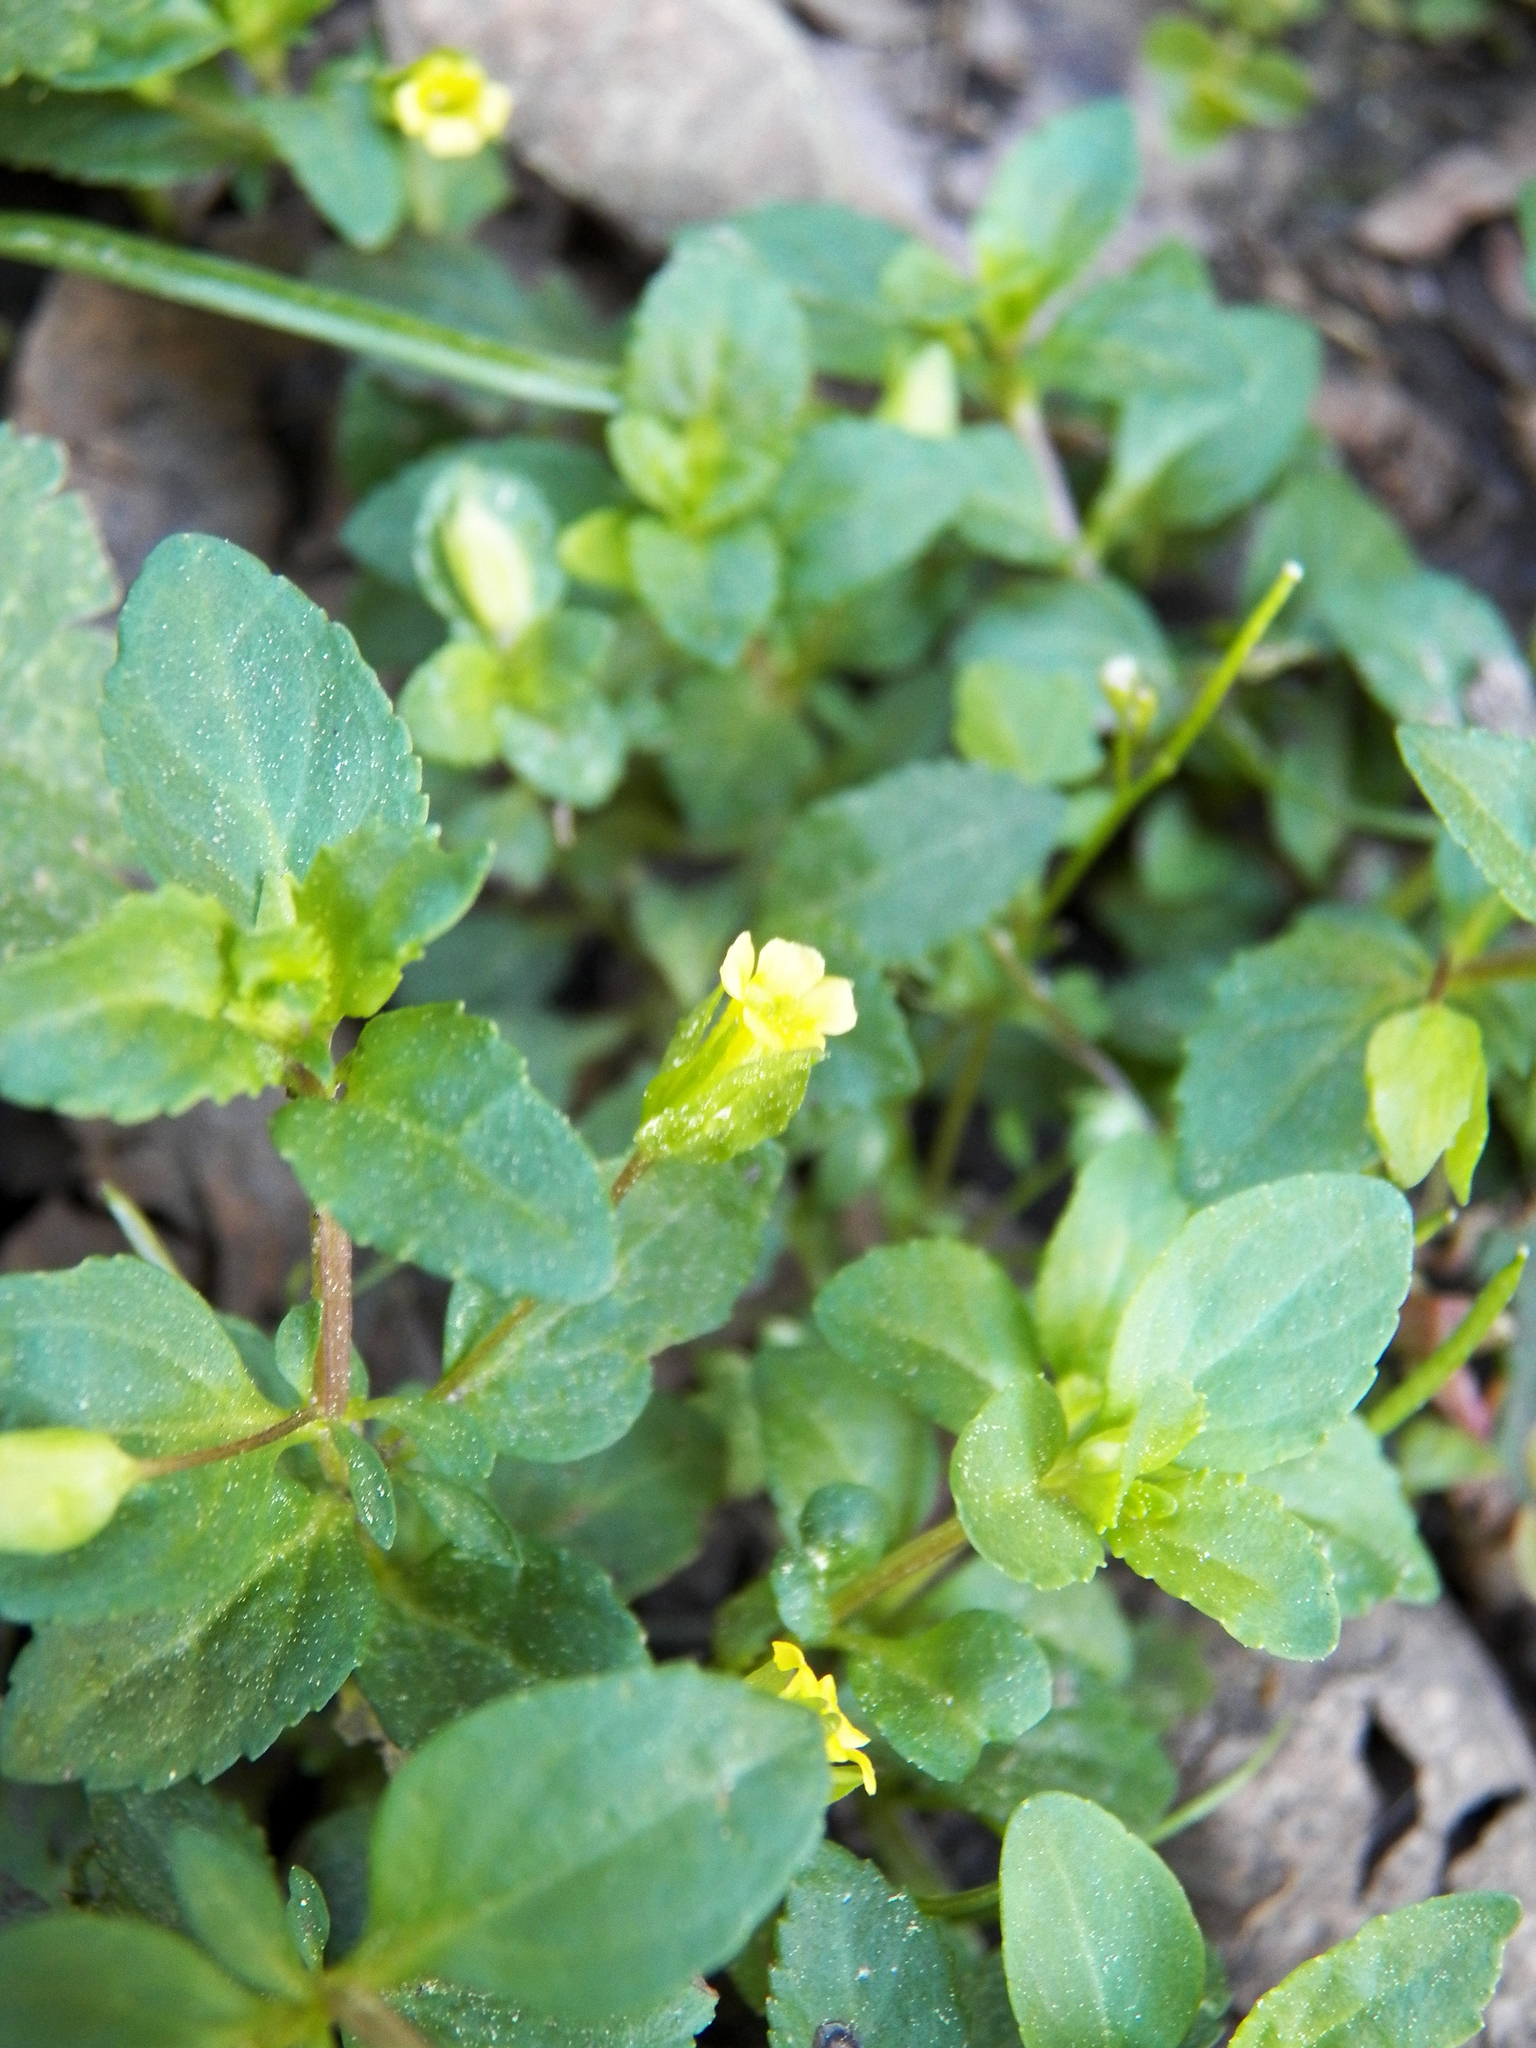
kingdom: Plantae
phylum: Tracheophyta
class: Magnoliopsida
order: Lamiales
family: Plantaginaceae
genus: Mecardonia
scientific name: Mecardonia procumbens
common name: Baby jump-up
